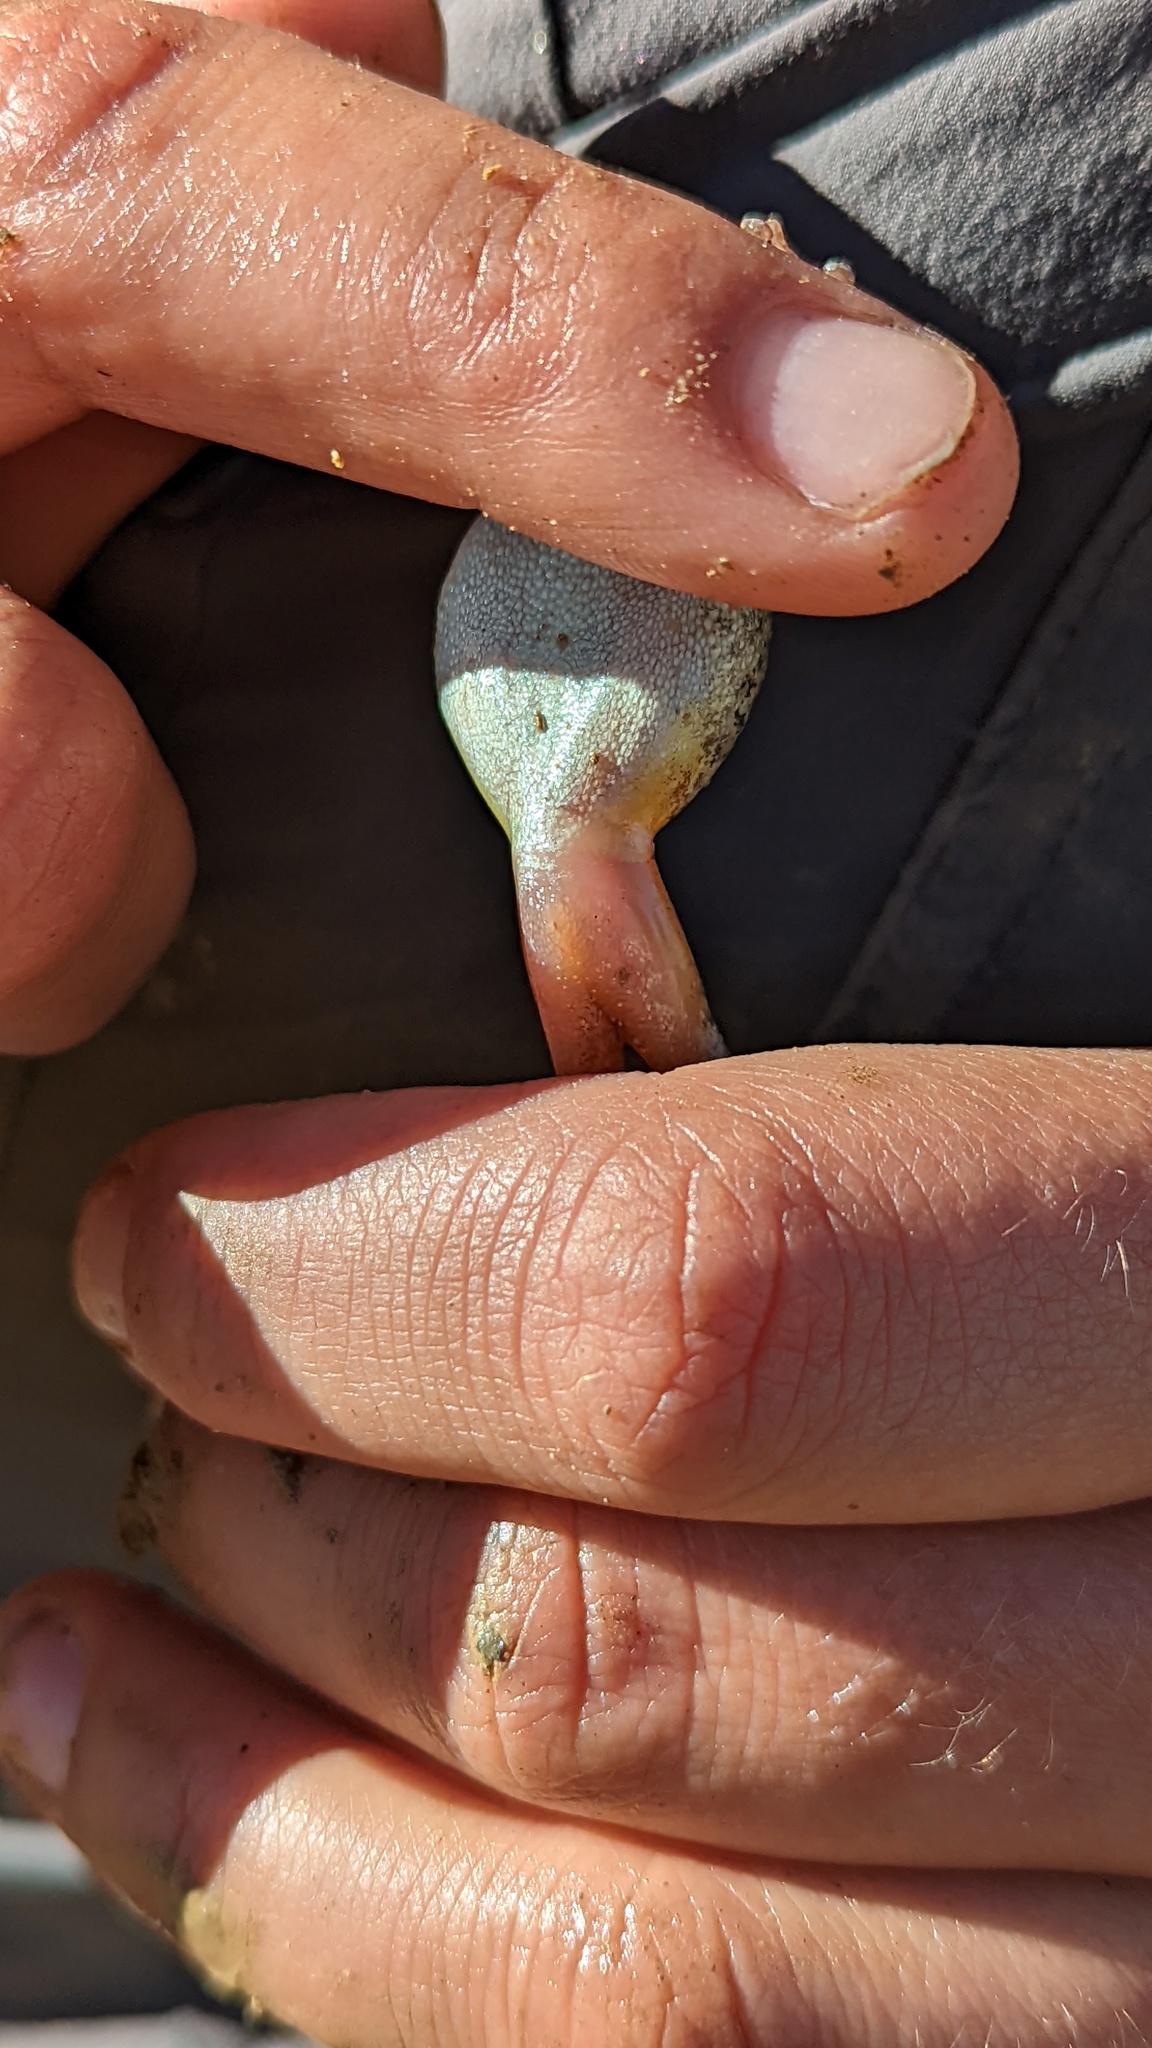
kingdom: Animalia
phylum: Chordata
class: Amphibia
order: Anura
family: Hylidae
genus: Pseudacris
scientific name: Pseudacris cadaverina
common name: California chorus frog
